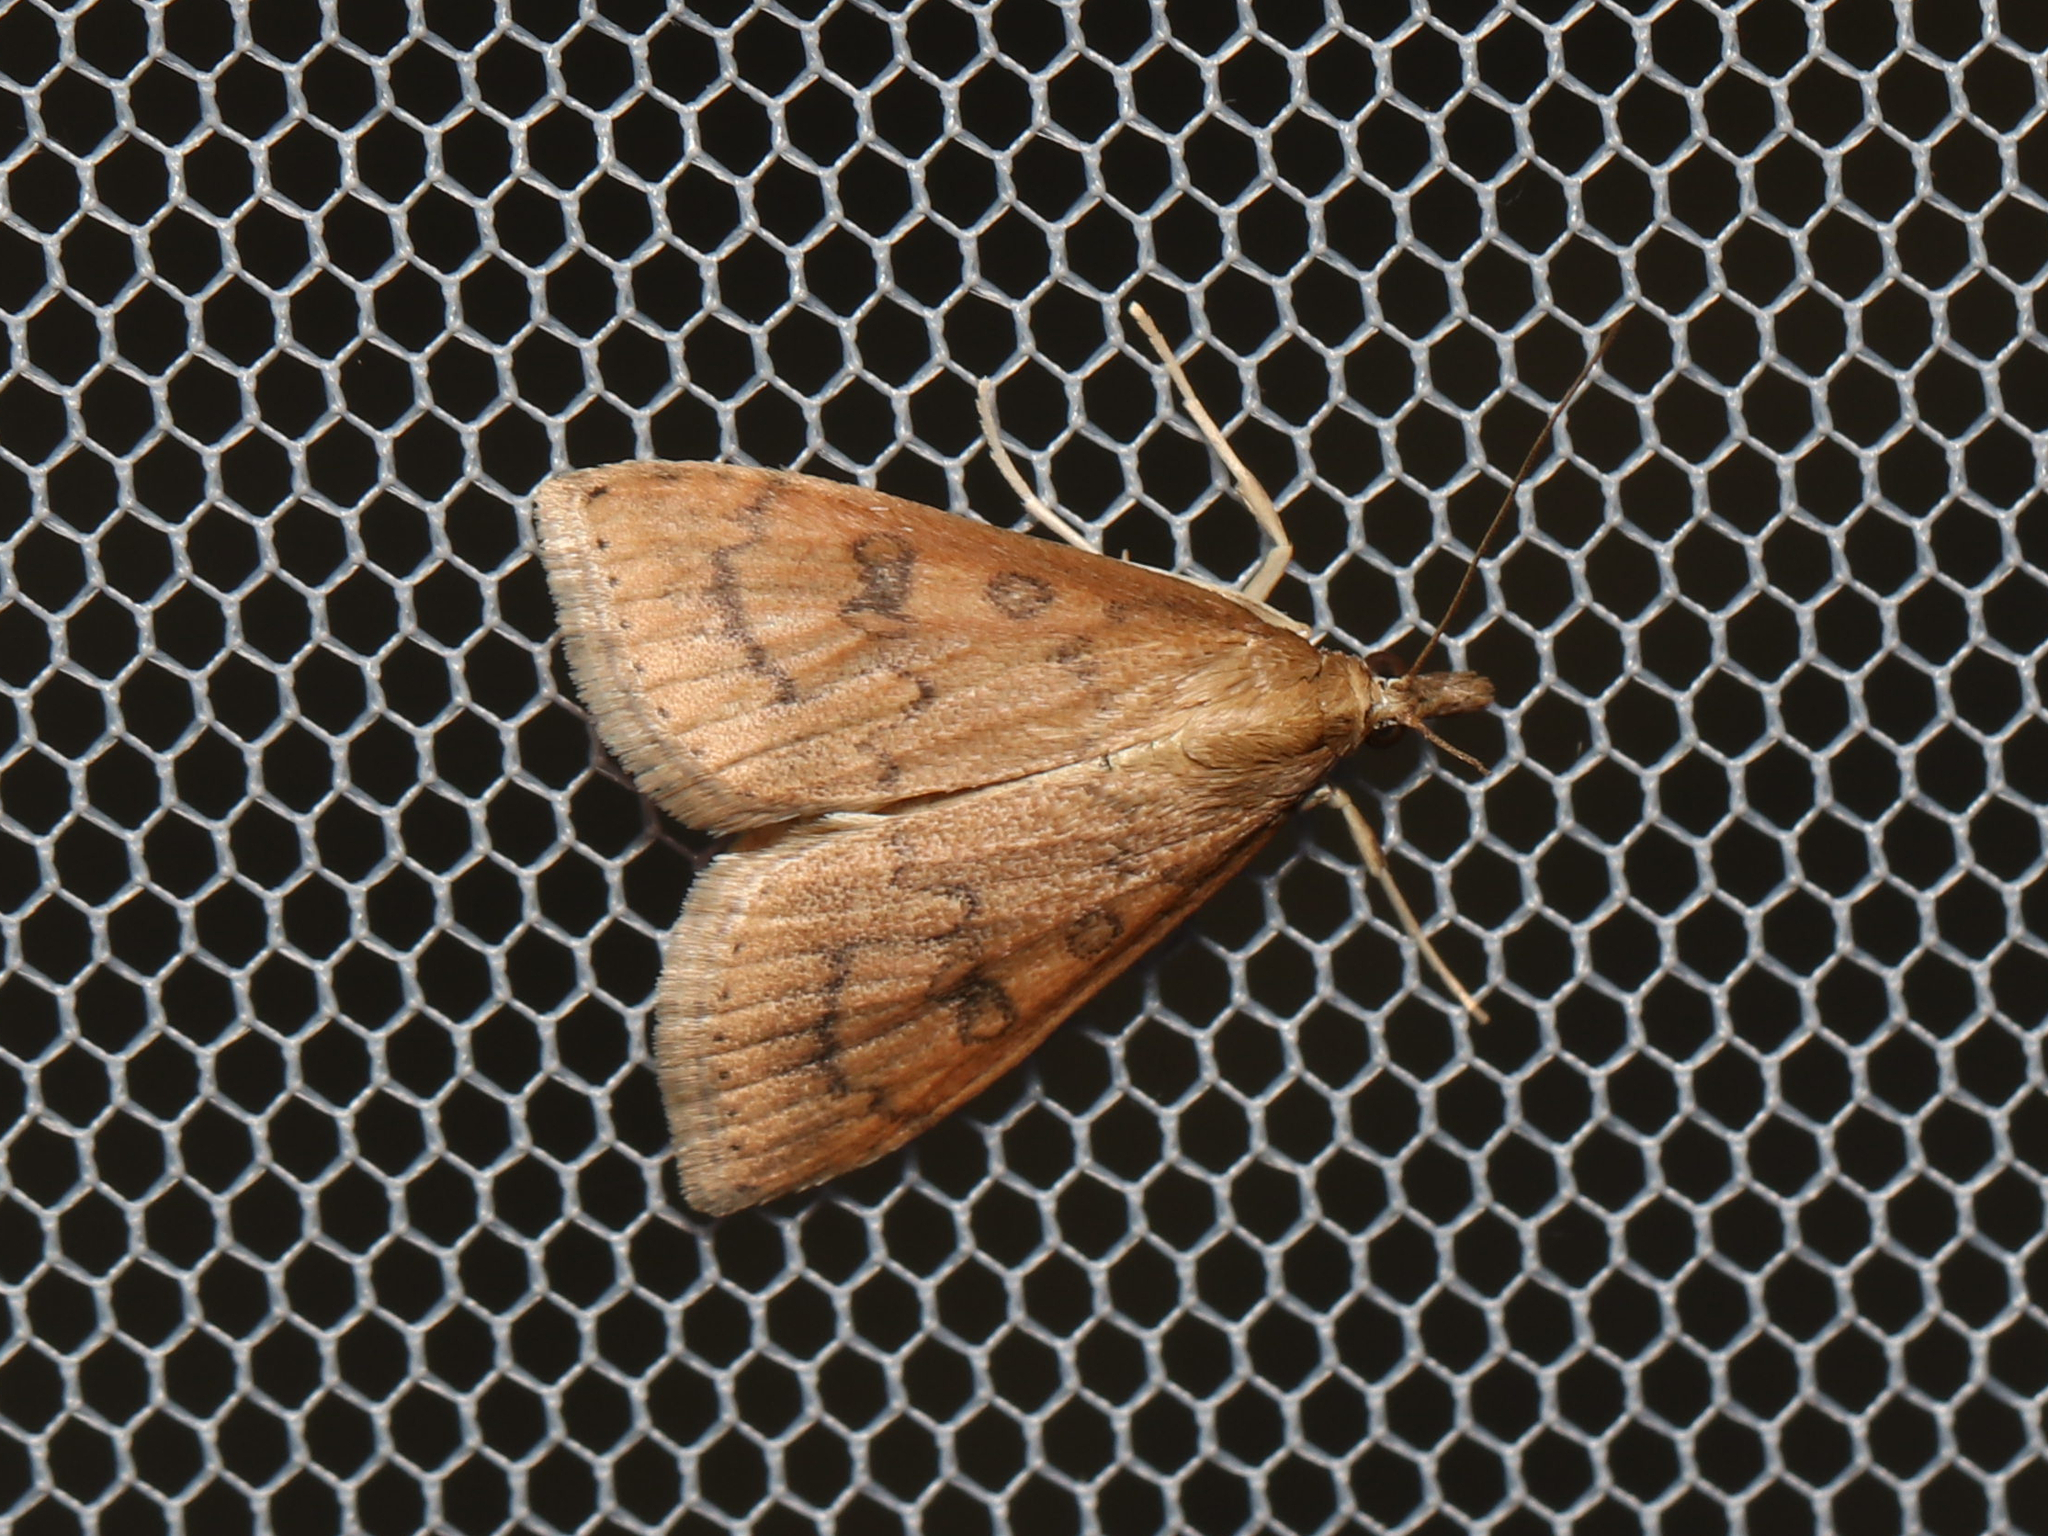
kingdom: Animalia
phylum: Arthropoda
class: Insecta
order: Lepidoptera
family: Crambidae
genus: Udea
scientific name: Udea rubigalis
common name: Celery leaftier moth
